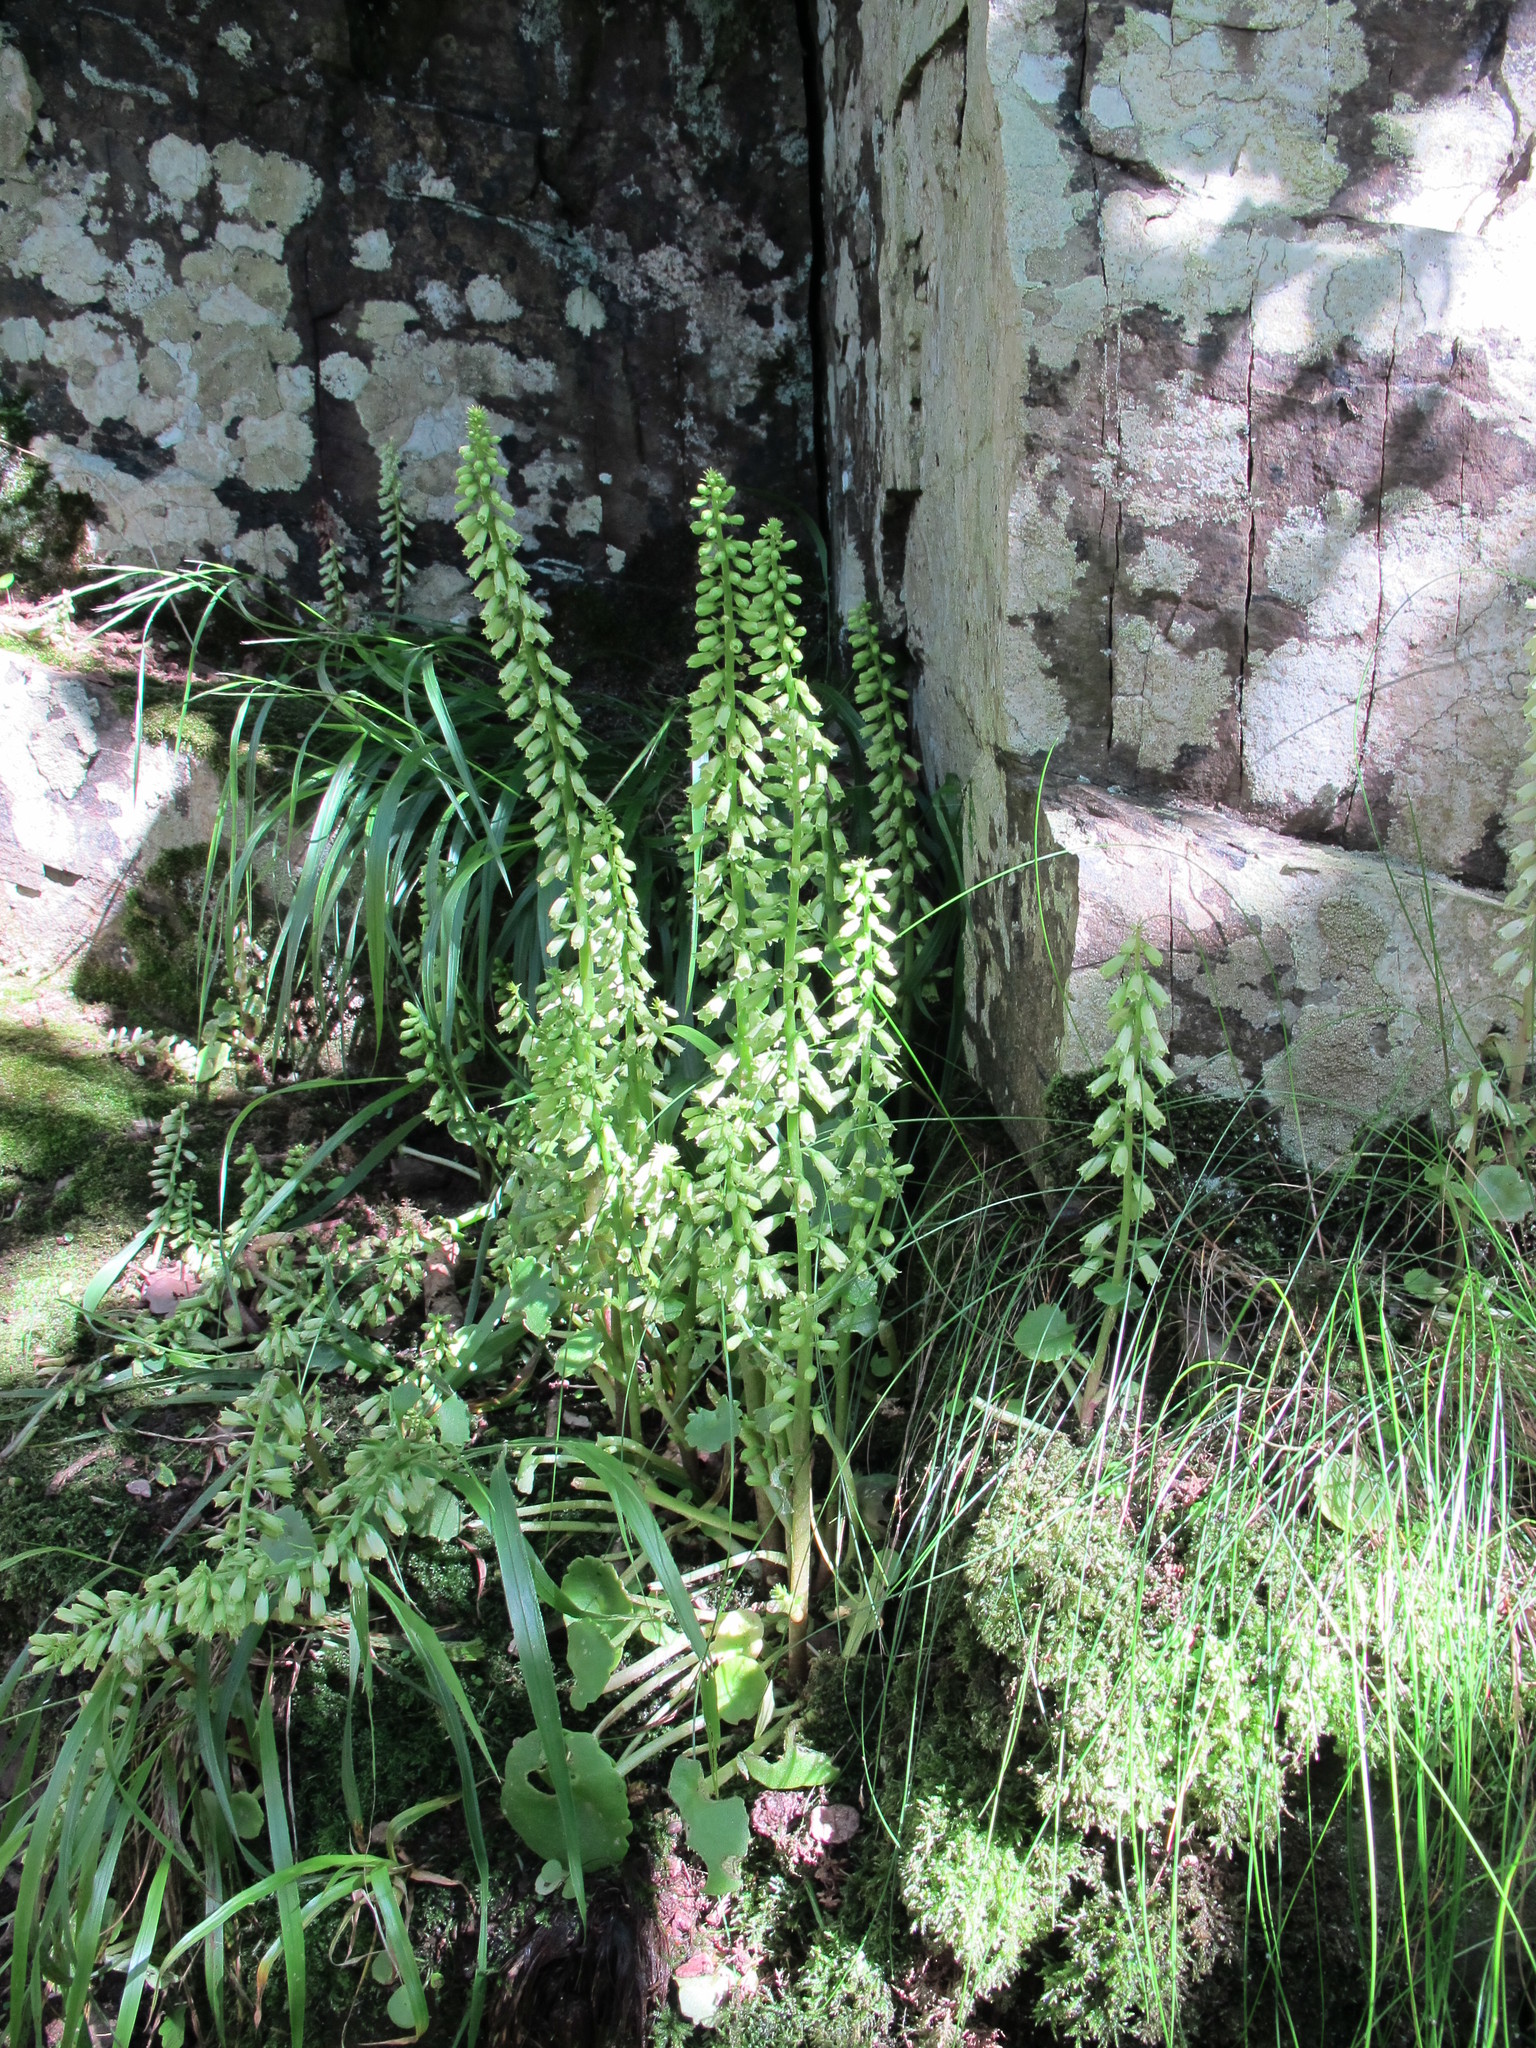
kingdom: Plantae
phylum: Tracheophyta
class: Magnoliopsida
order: Saxifragales
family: Crassulaceae
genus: Umbilicus
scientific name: Umbilicus rupestris
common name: Navelwort
